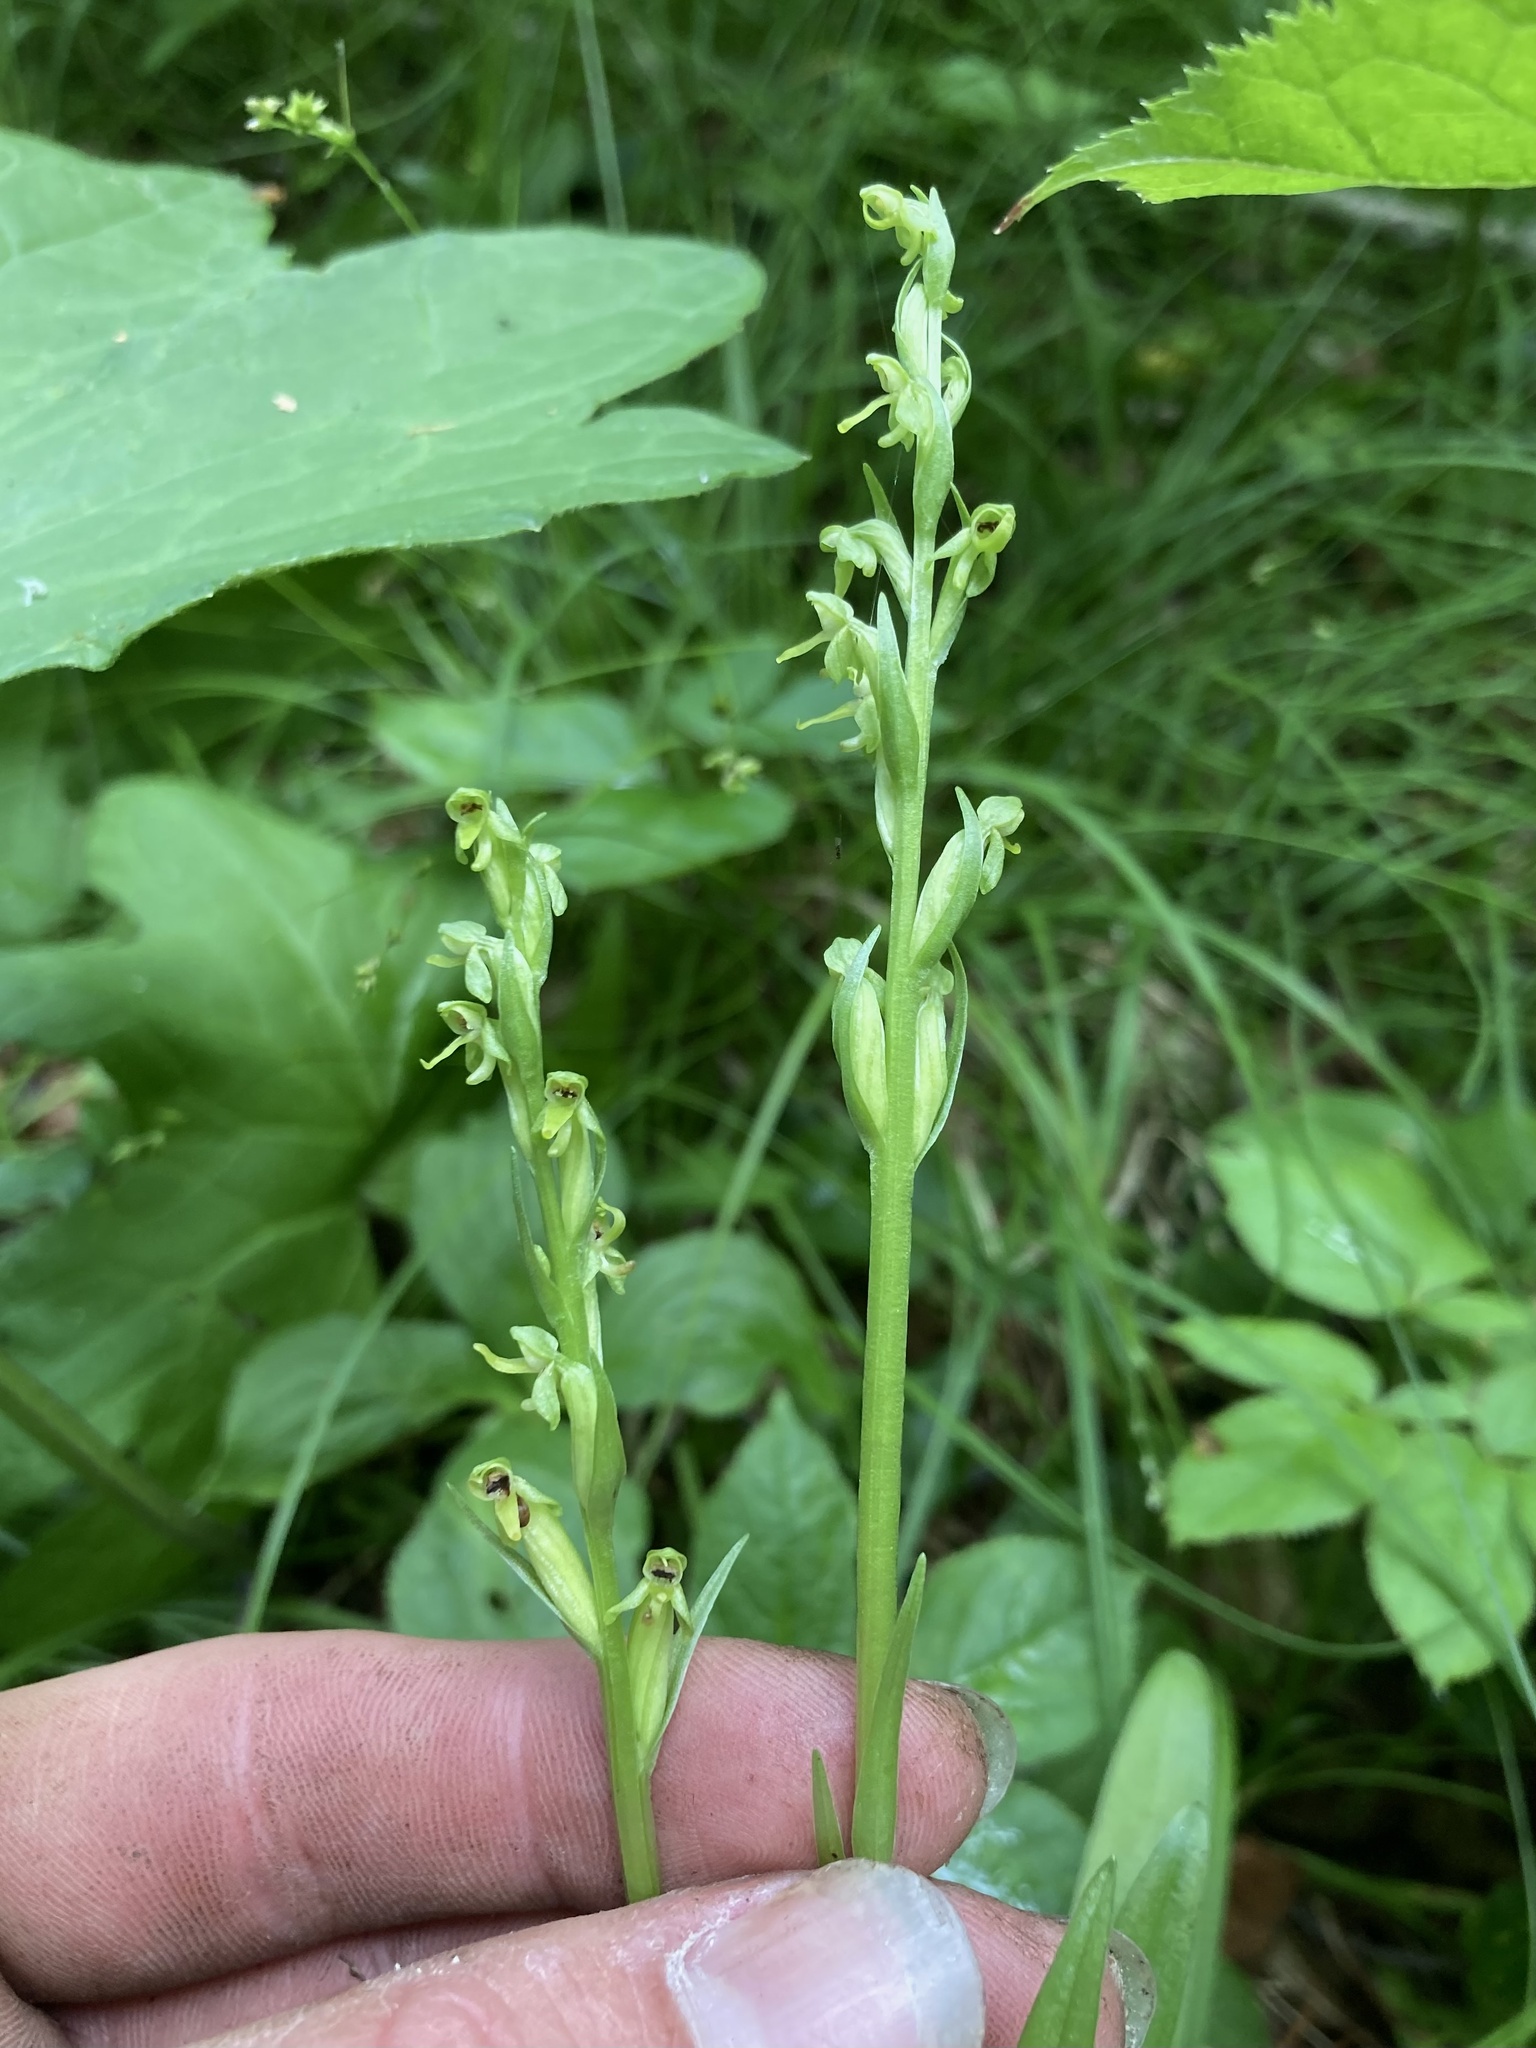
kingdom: Plantae
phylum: Tracheophyta
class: Liliopsida
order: Asparagales
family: Orchidaceae
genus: Platanthera
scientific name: Platanthera aquilonis
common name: Northern green orchid
